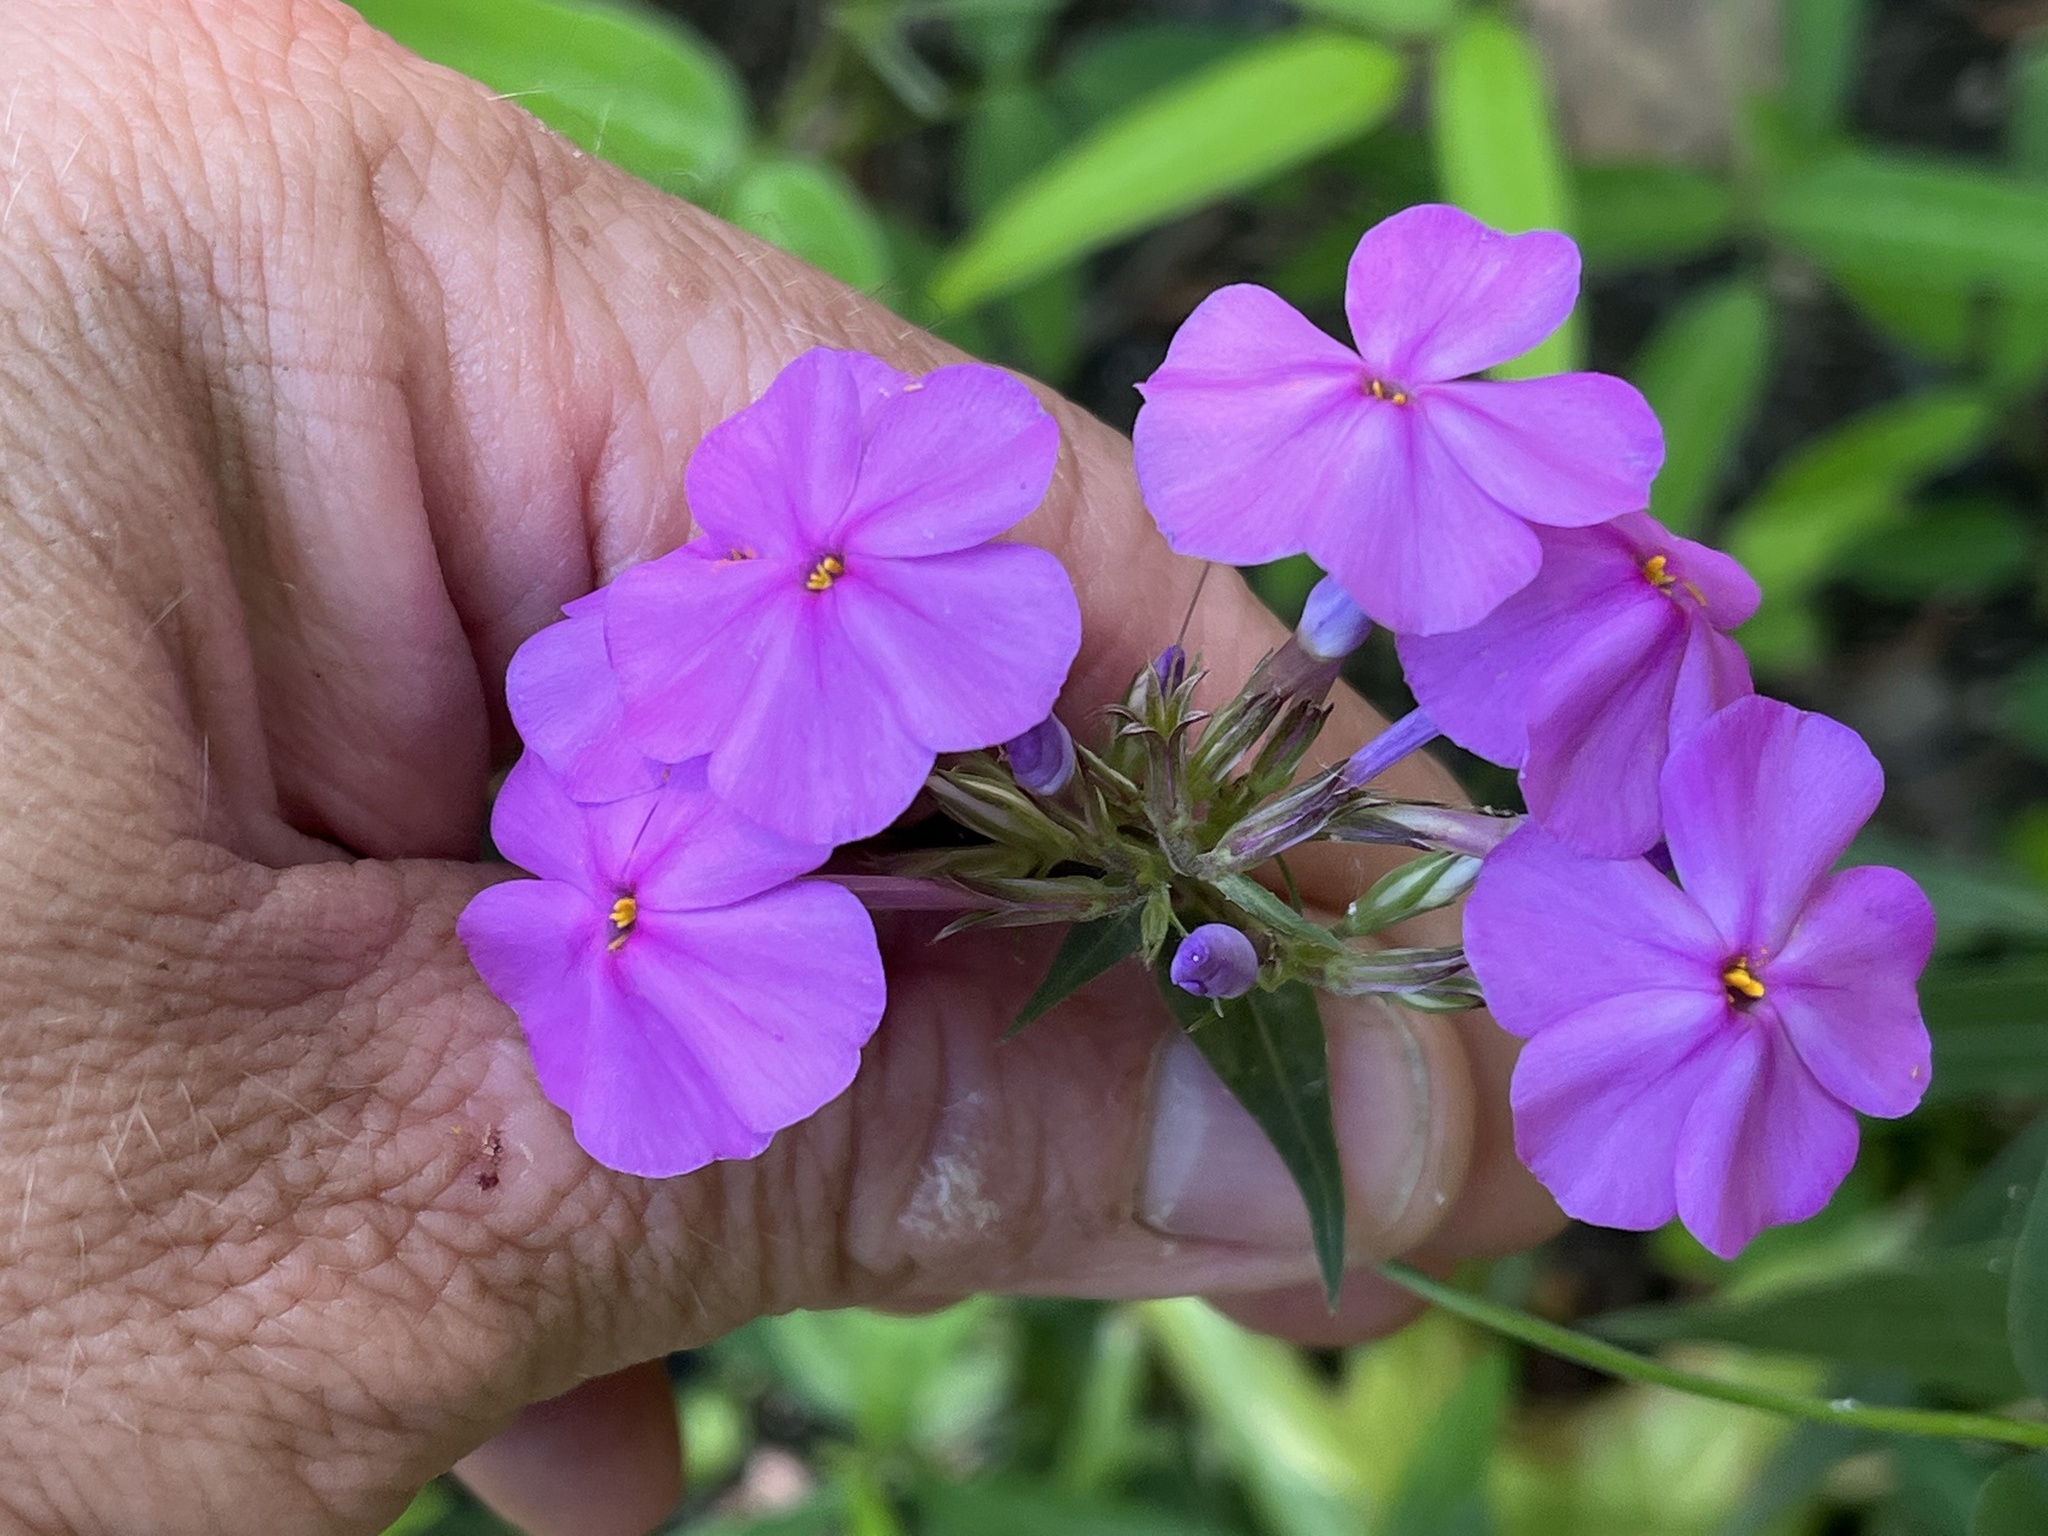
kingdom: Plantae
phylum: Tracheophyta
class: Magnoliopsida
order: Ericales
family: Polemoniaceae
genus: Phlox
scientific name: Phlox carolina
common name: Thick-leaf phlox
